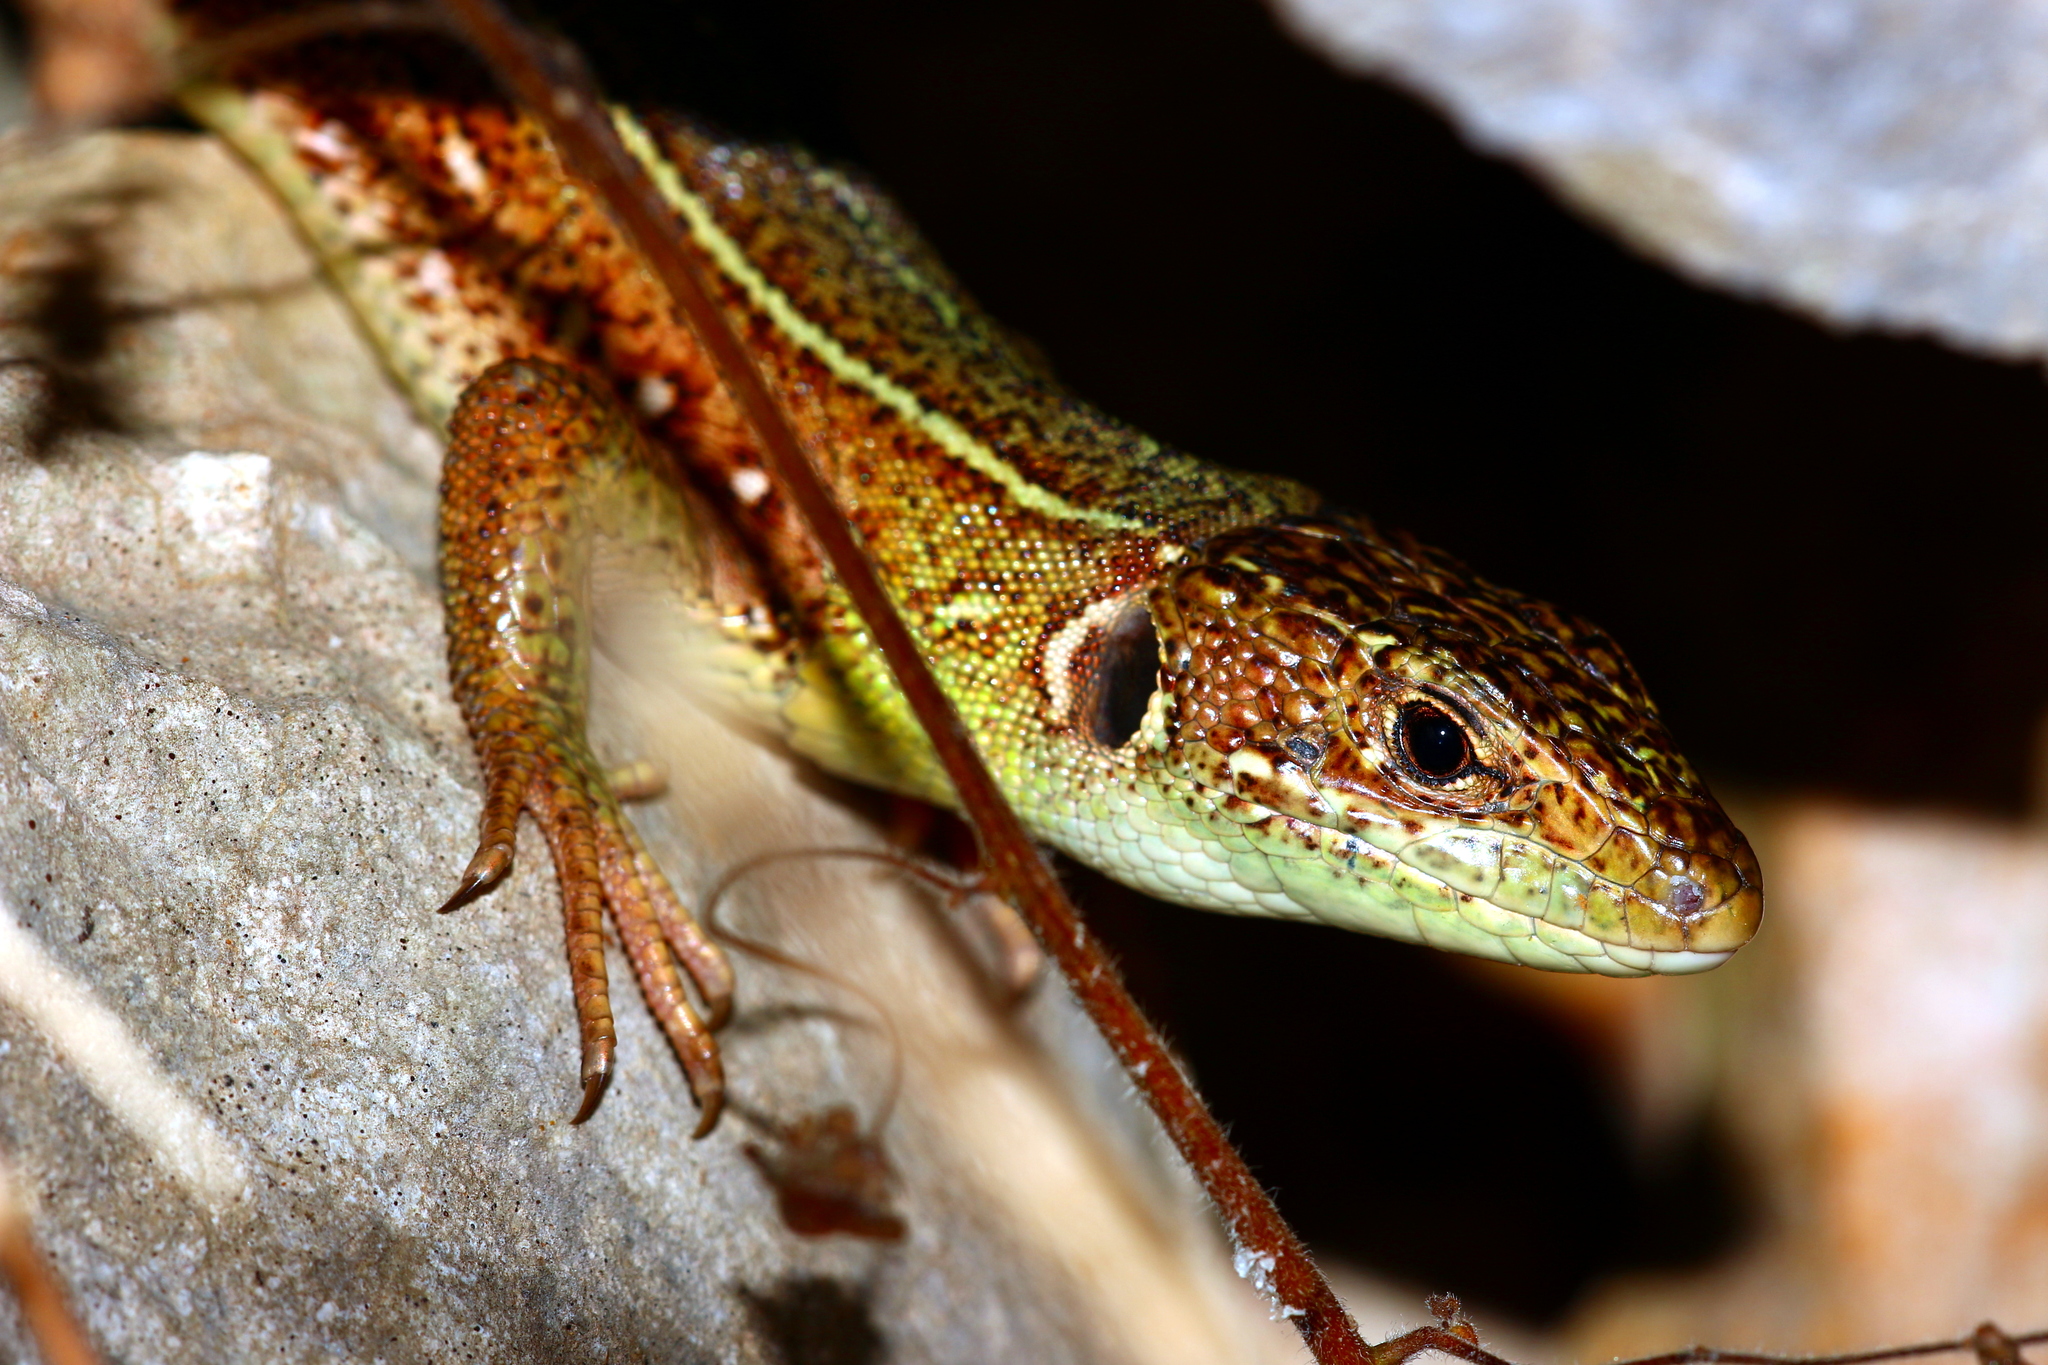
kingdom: Animalia
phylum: Chordata
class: Squamata
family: Lacertidae
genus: Lacerta
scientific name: Lacerta trilineata
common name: Balkan green lizard
